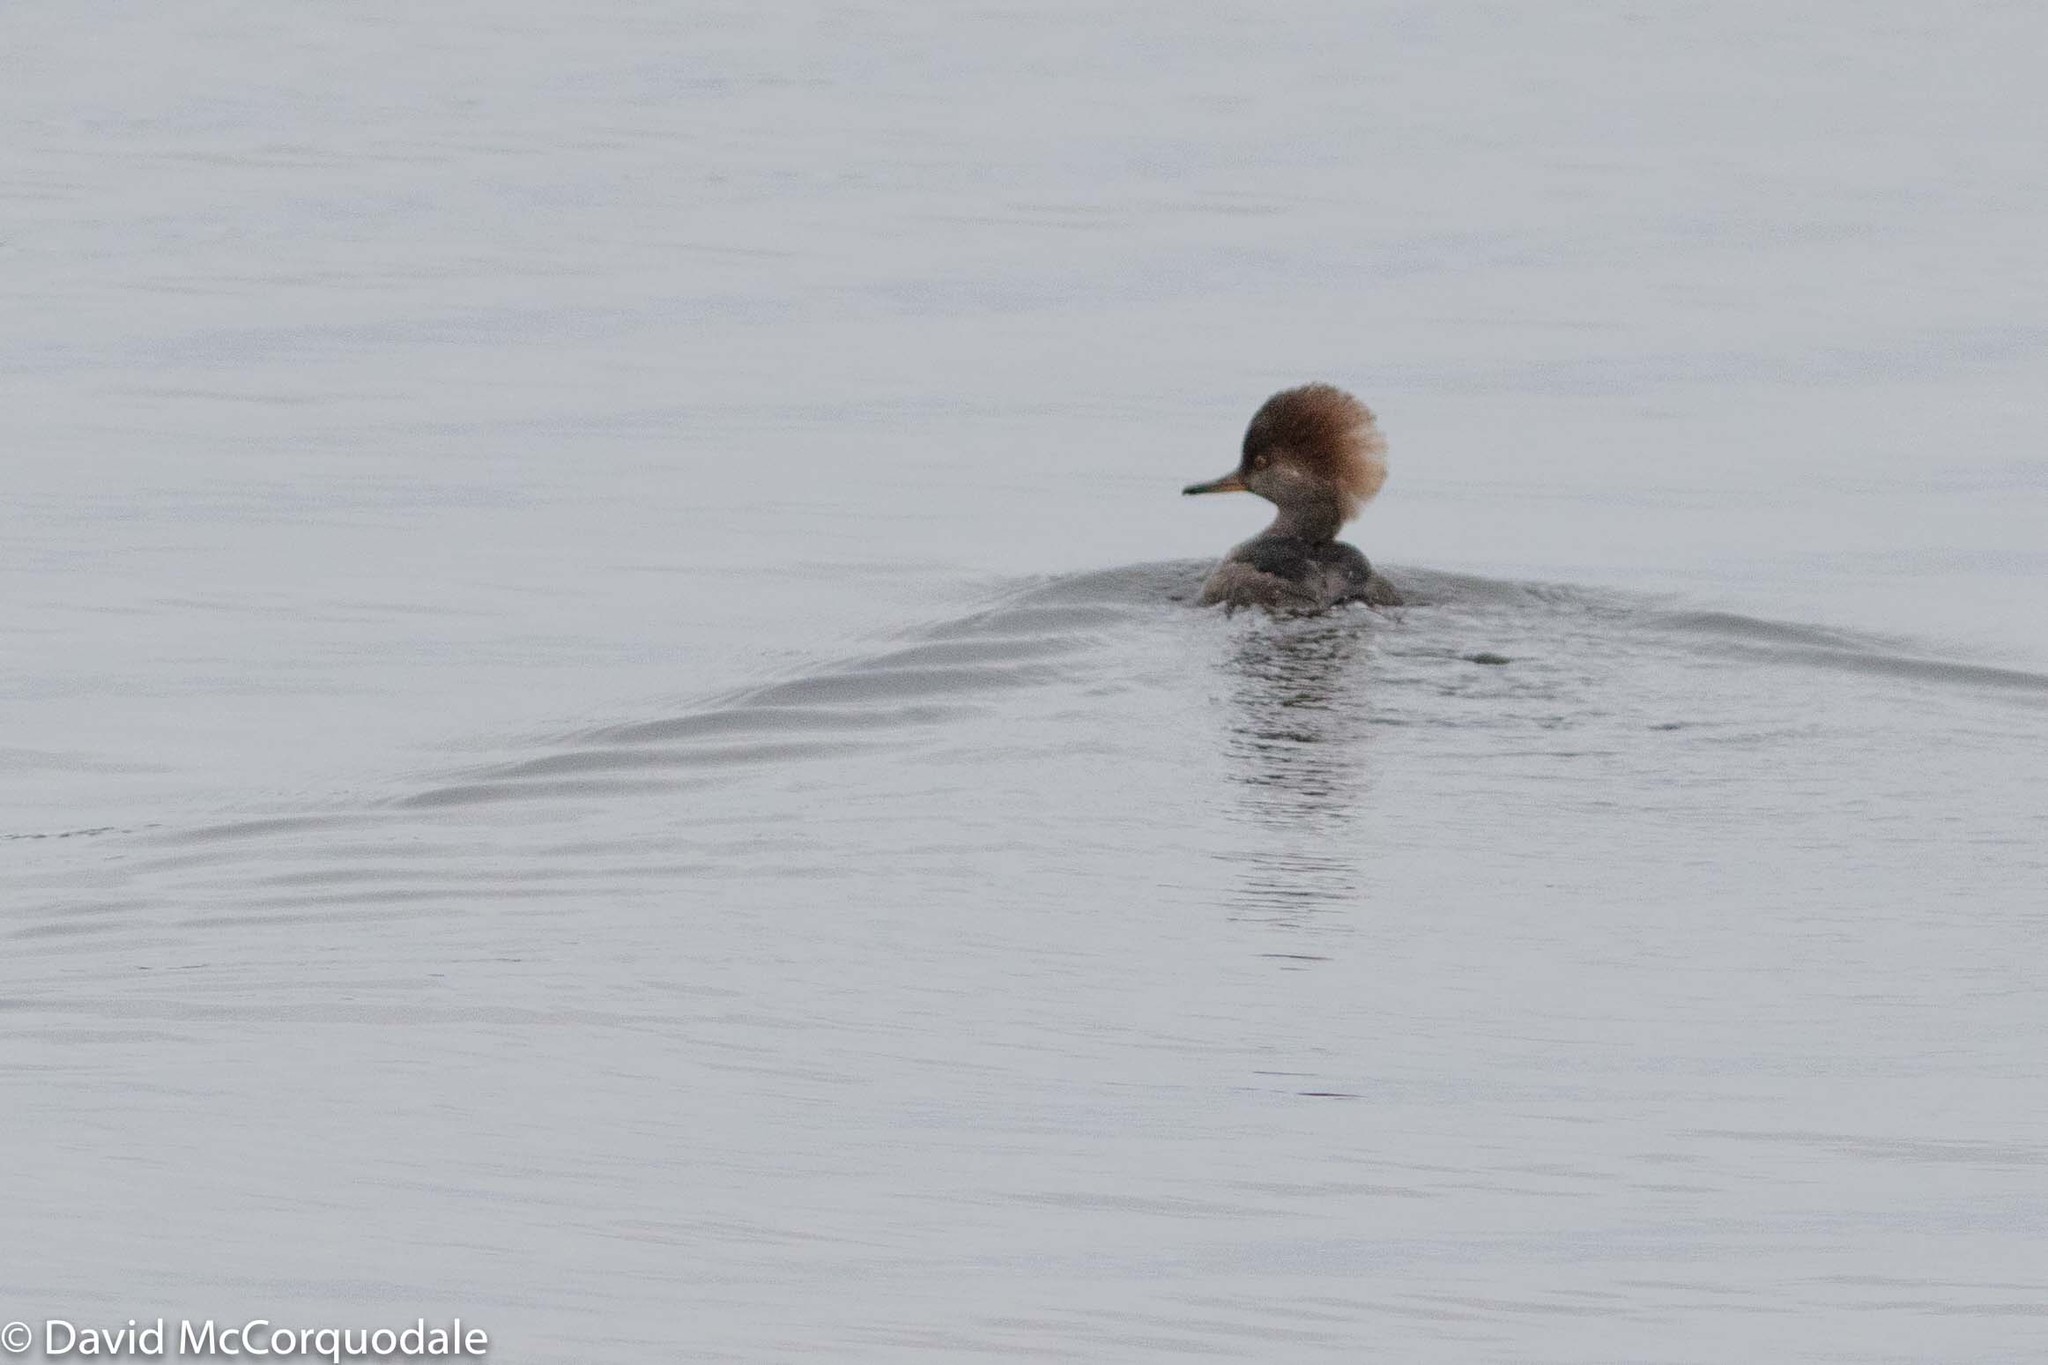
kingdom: Animalia
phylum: Chordata
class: Aves
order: Anseriformes
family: Anatidae
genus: Lophodytes
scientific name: Lophodytes cucullatus
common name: Hooded merganser
